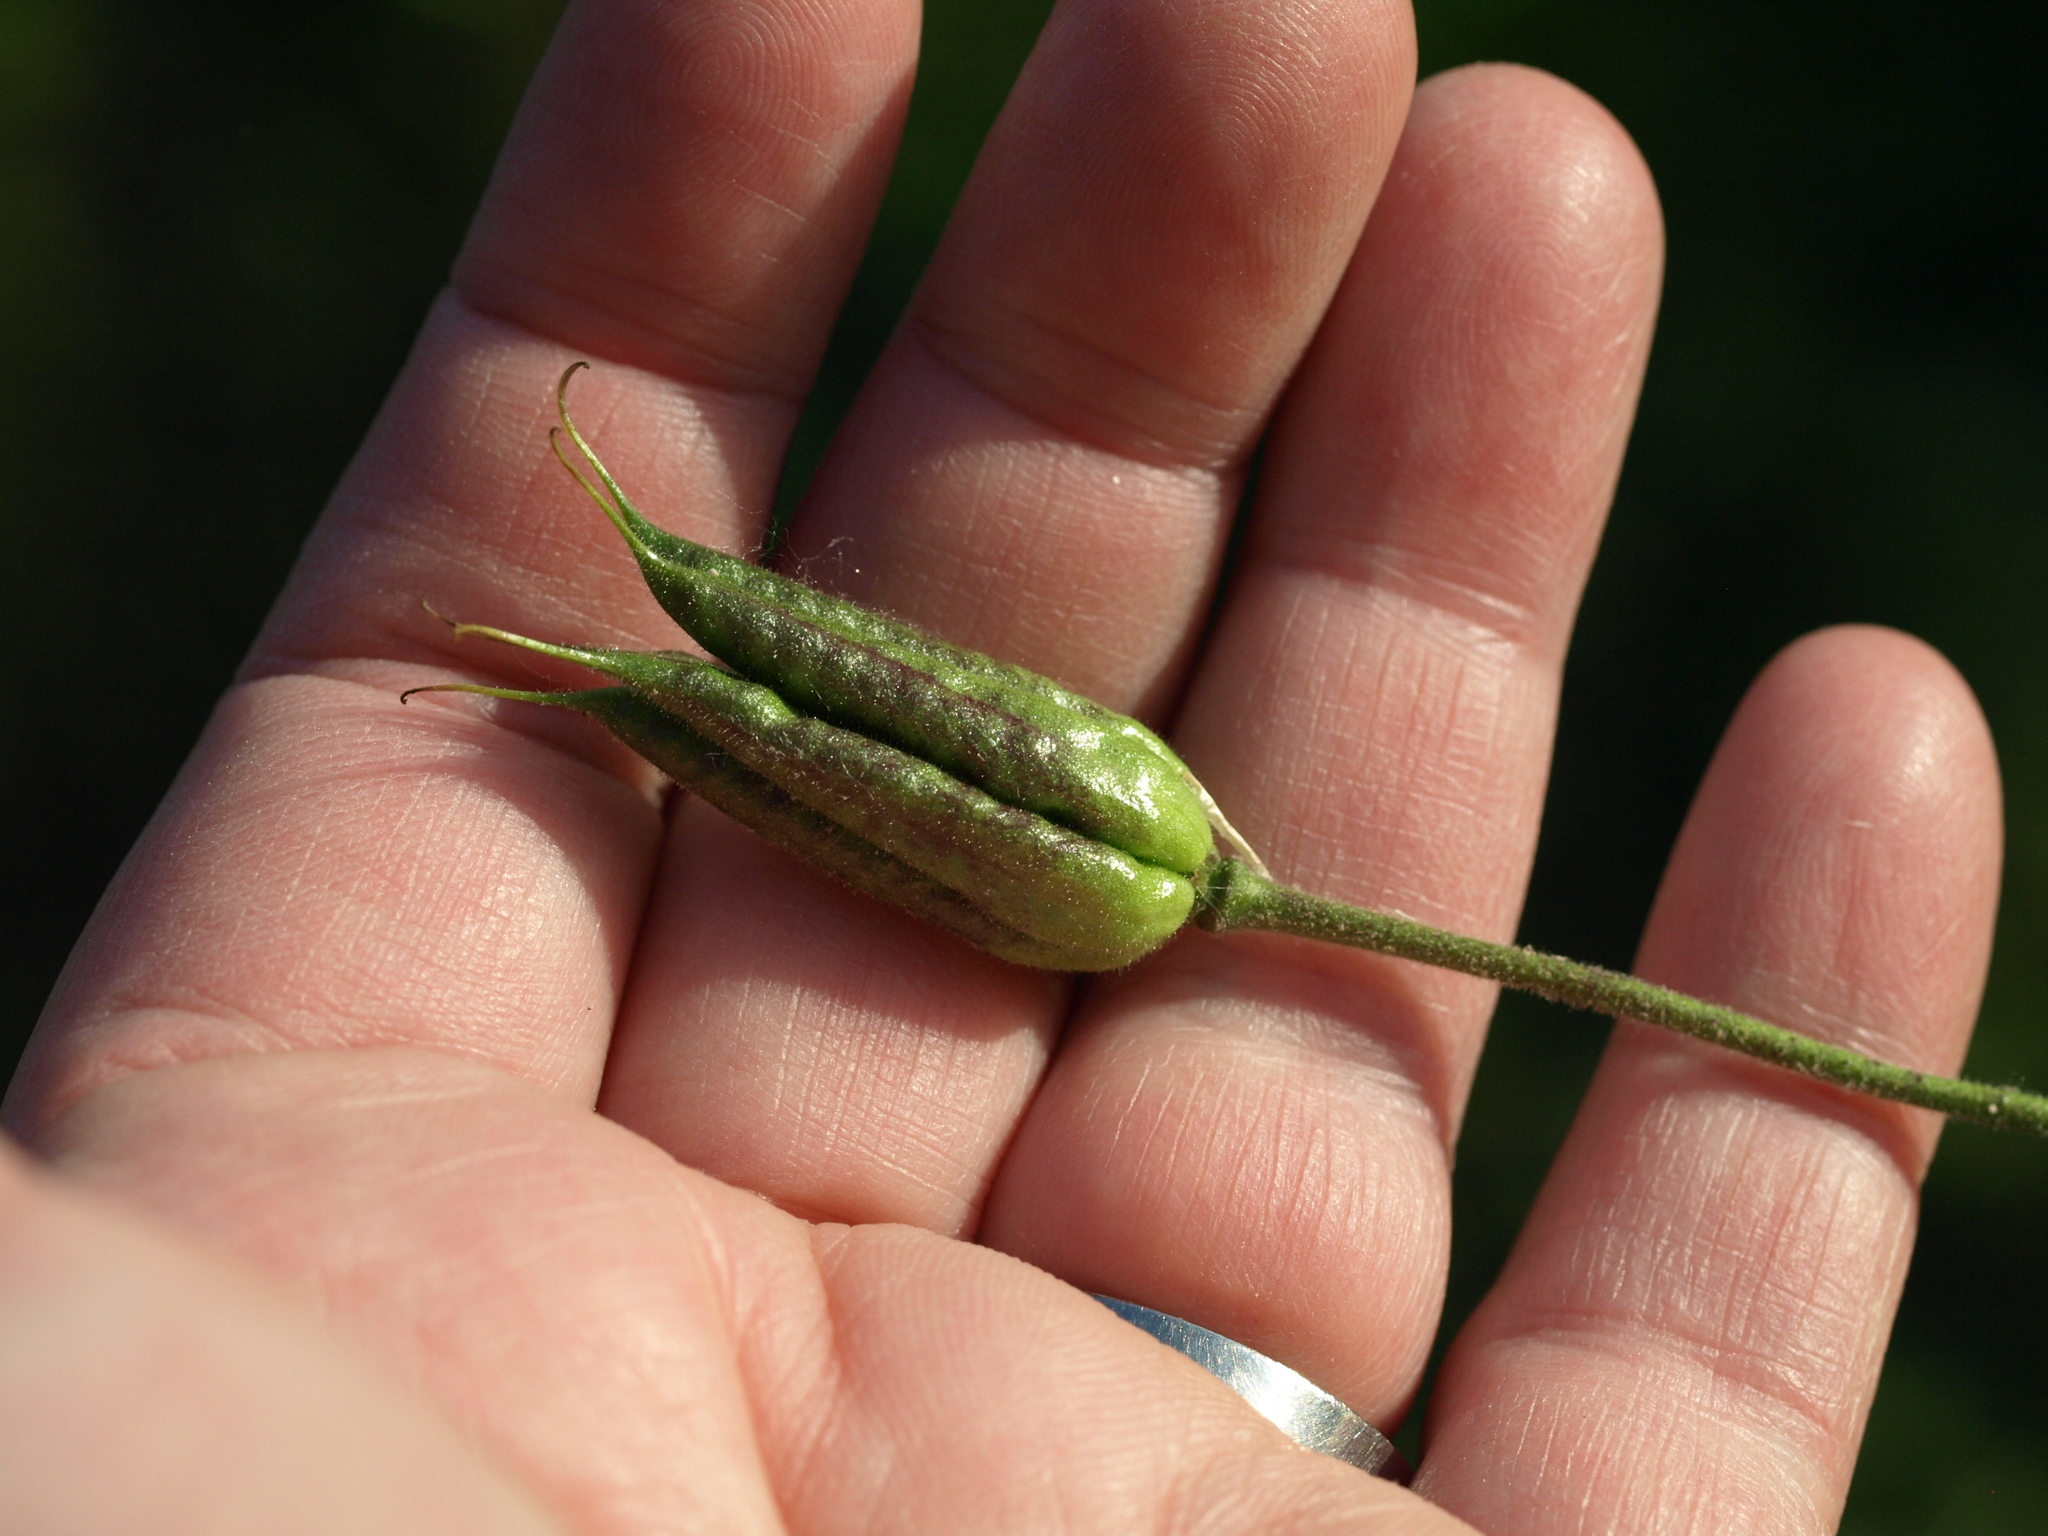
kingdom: Plantae
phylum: Tracheophyta
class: Magnoliopsida
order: Ranunculales
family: Ranunculaceae
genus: Aquilegia
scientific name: Aquilegia canadensis
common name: American columbine
